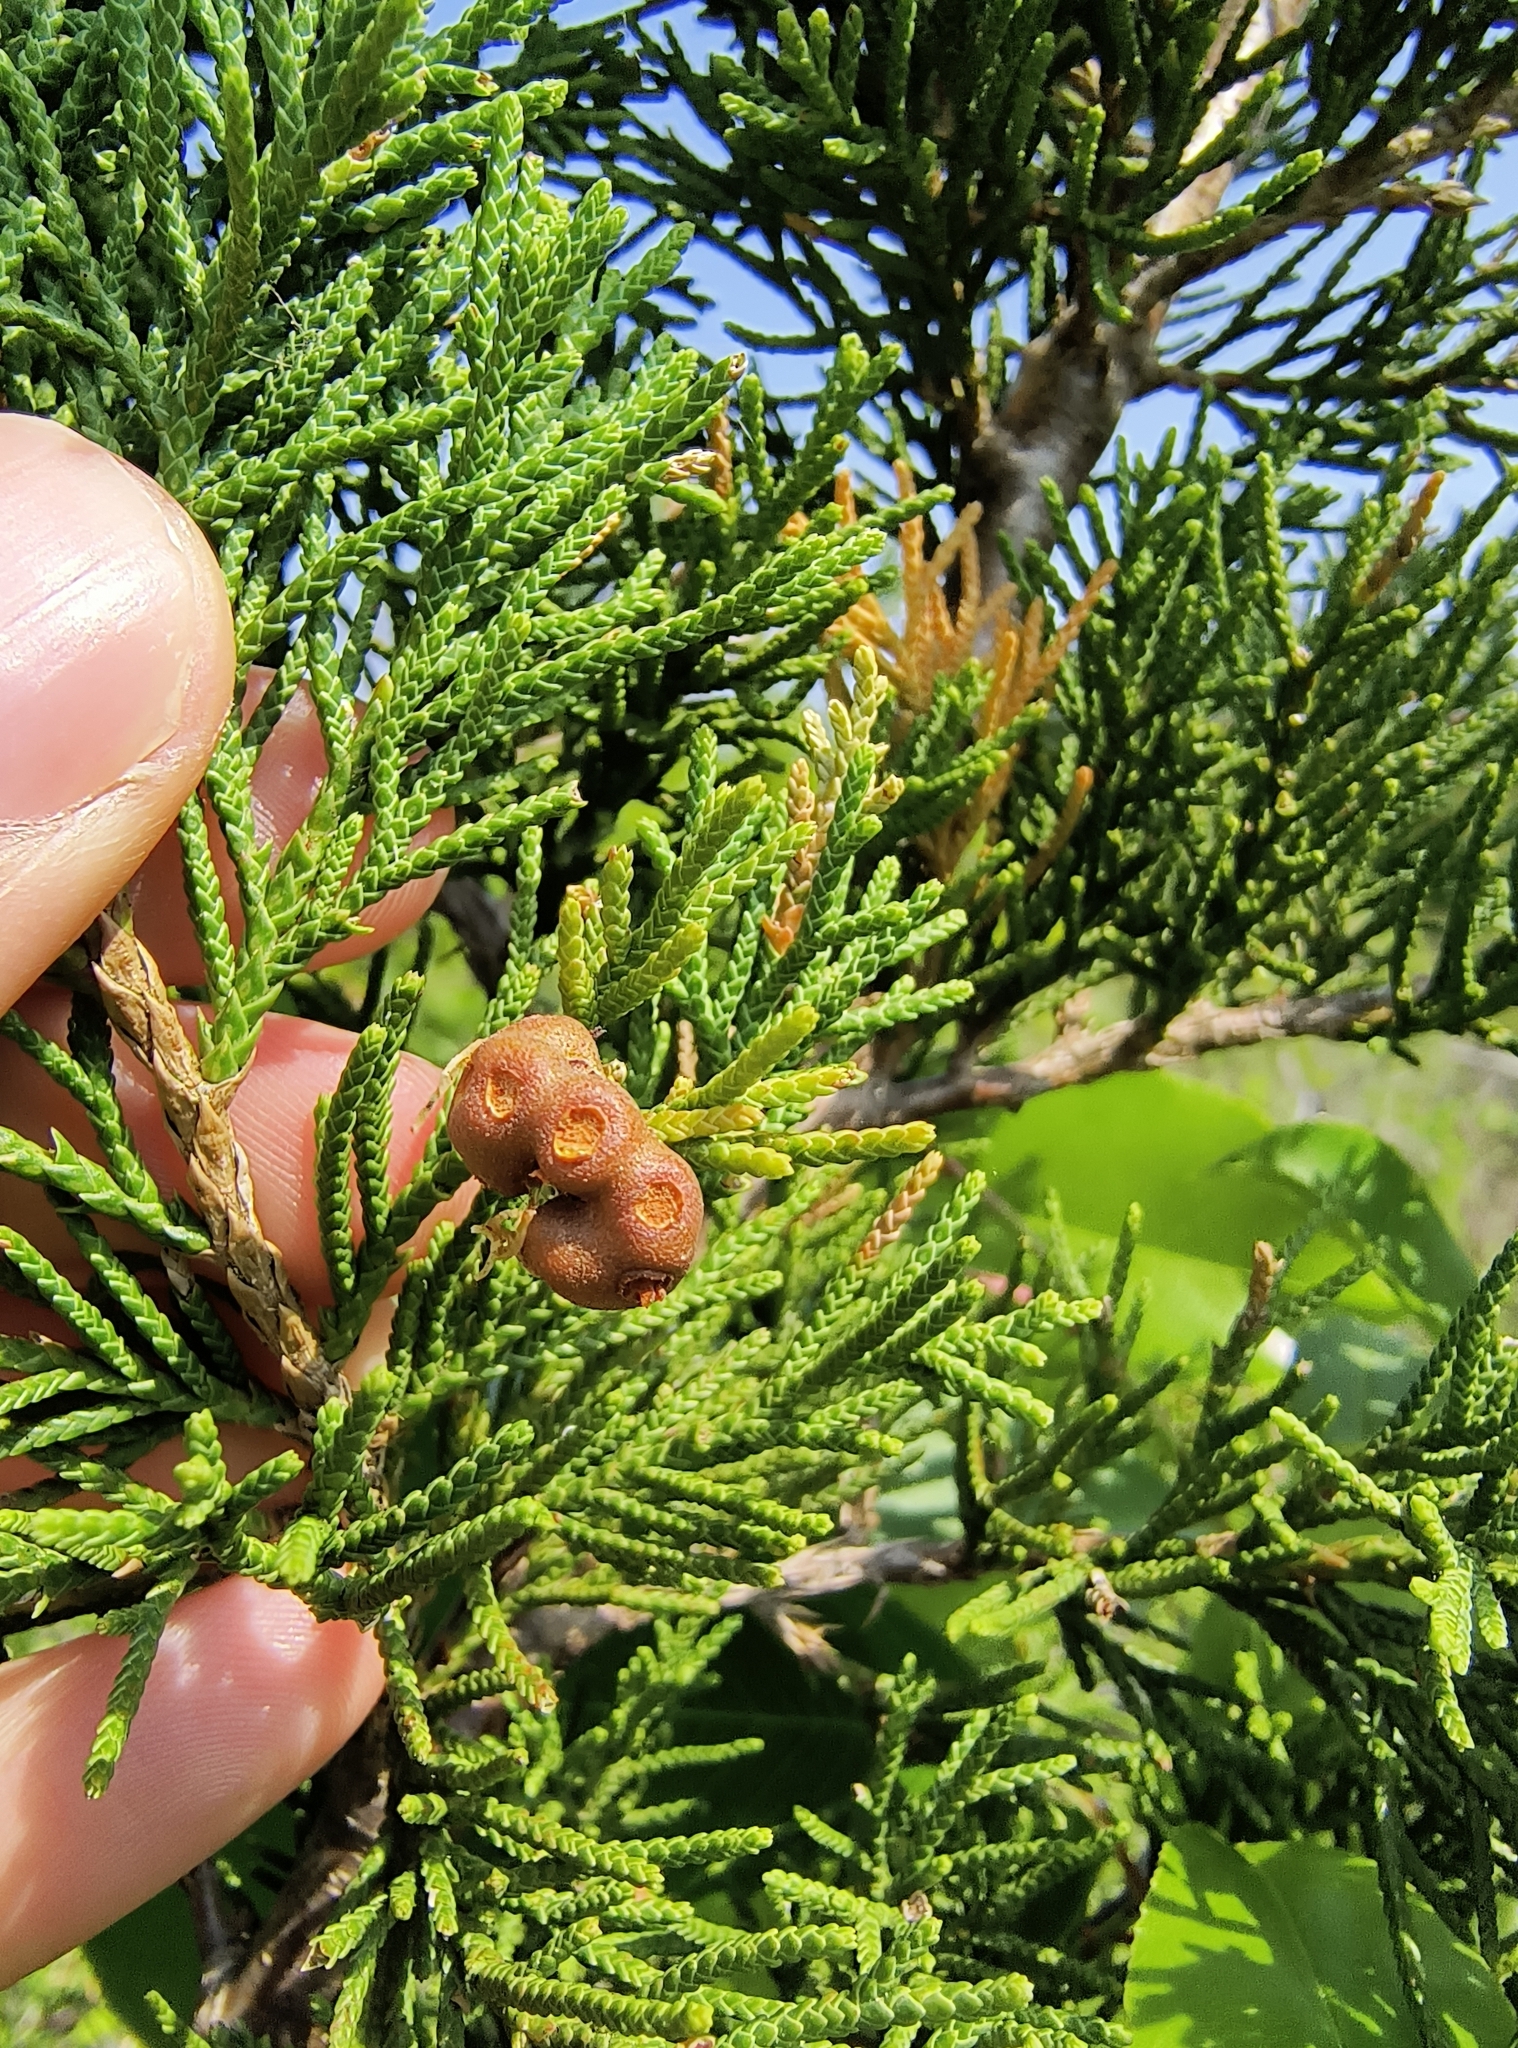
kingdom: Fungi
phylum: Basidiomycota
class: Pucciniomycetes
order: Pucciniales
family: Gymnosporangiaceae
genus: Gymnosporangium
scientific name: Gymnosporangium juniperi-virginianae
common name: Juniper-apple rust
